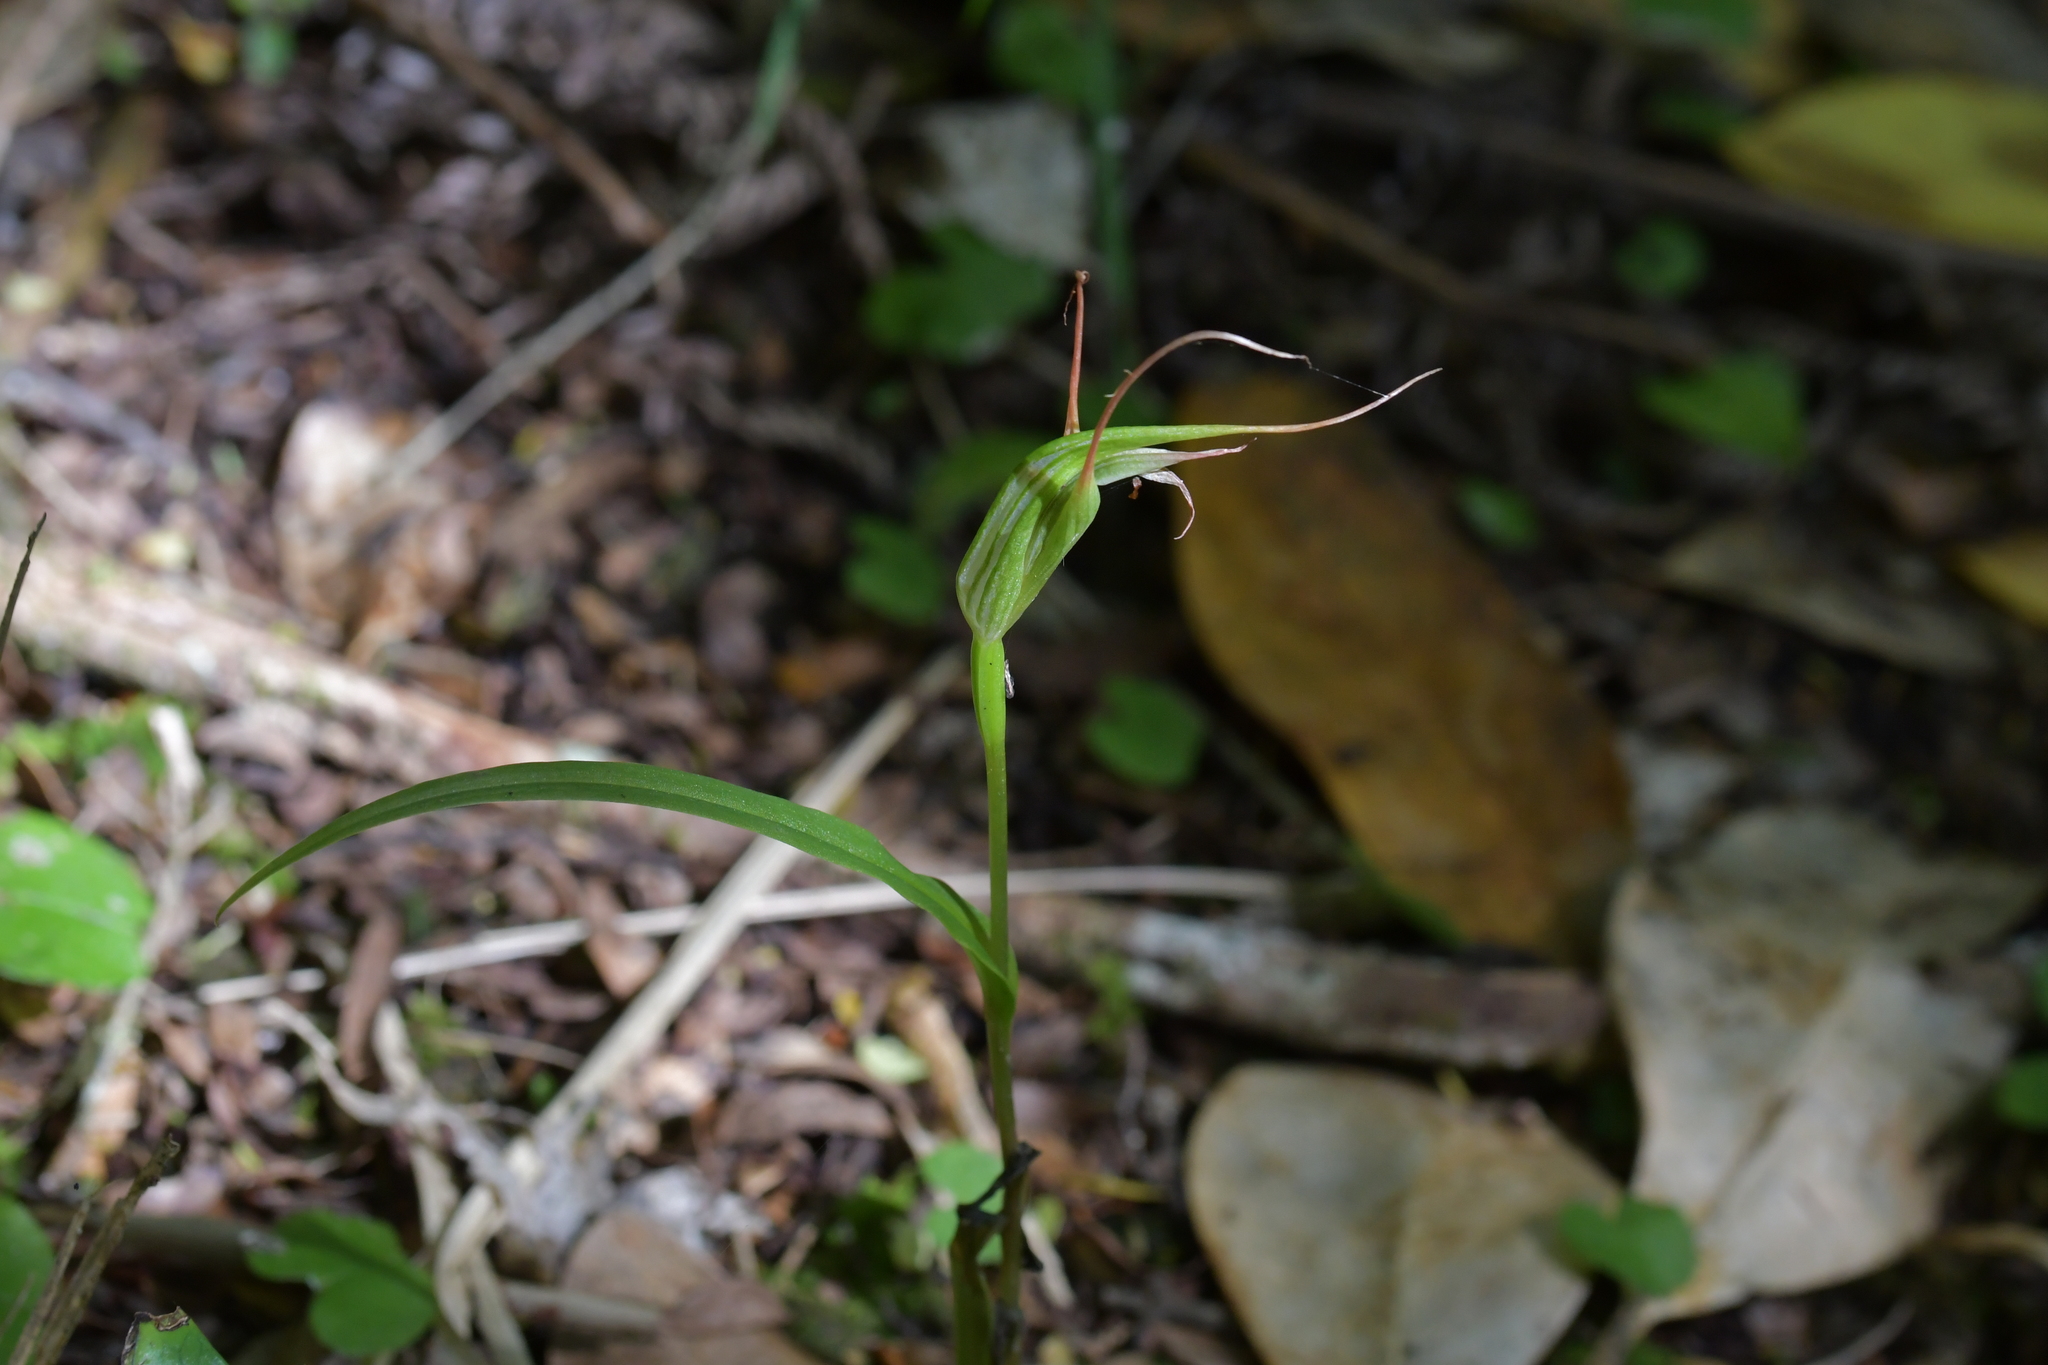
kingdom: Plantae
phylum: Tracheophyta
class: Liliopsida
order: Asparagales
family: Orchidaceae
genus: Pterostylis
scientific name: Pterostylis banksii
